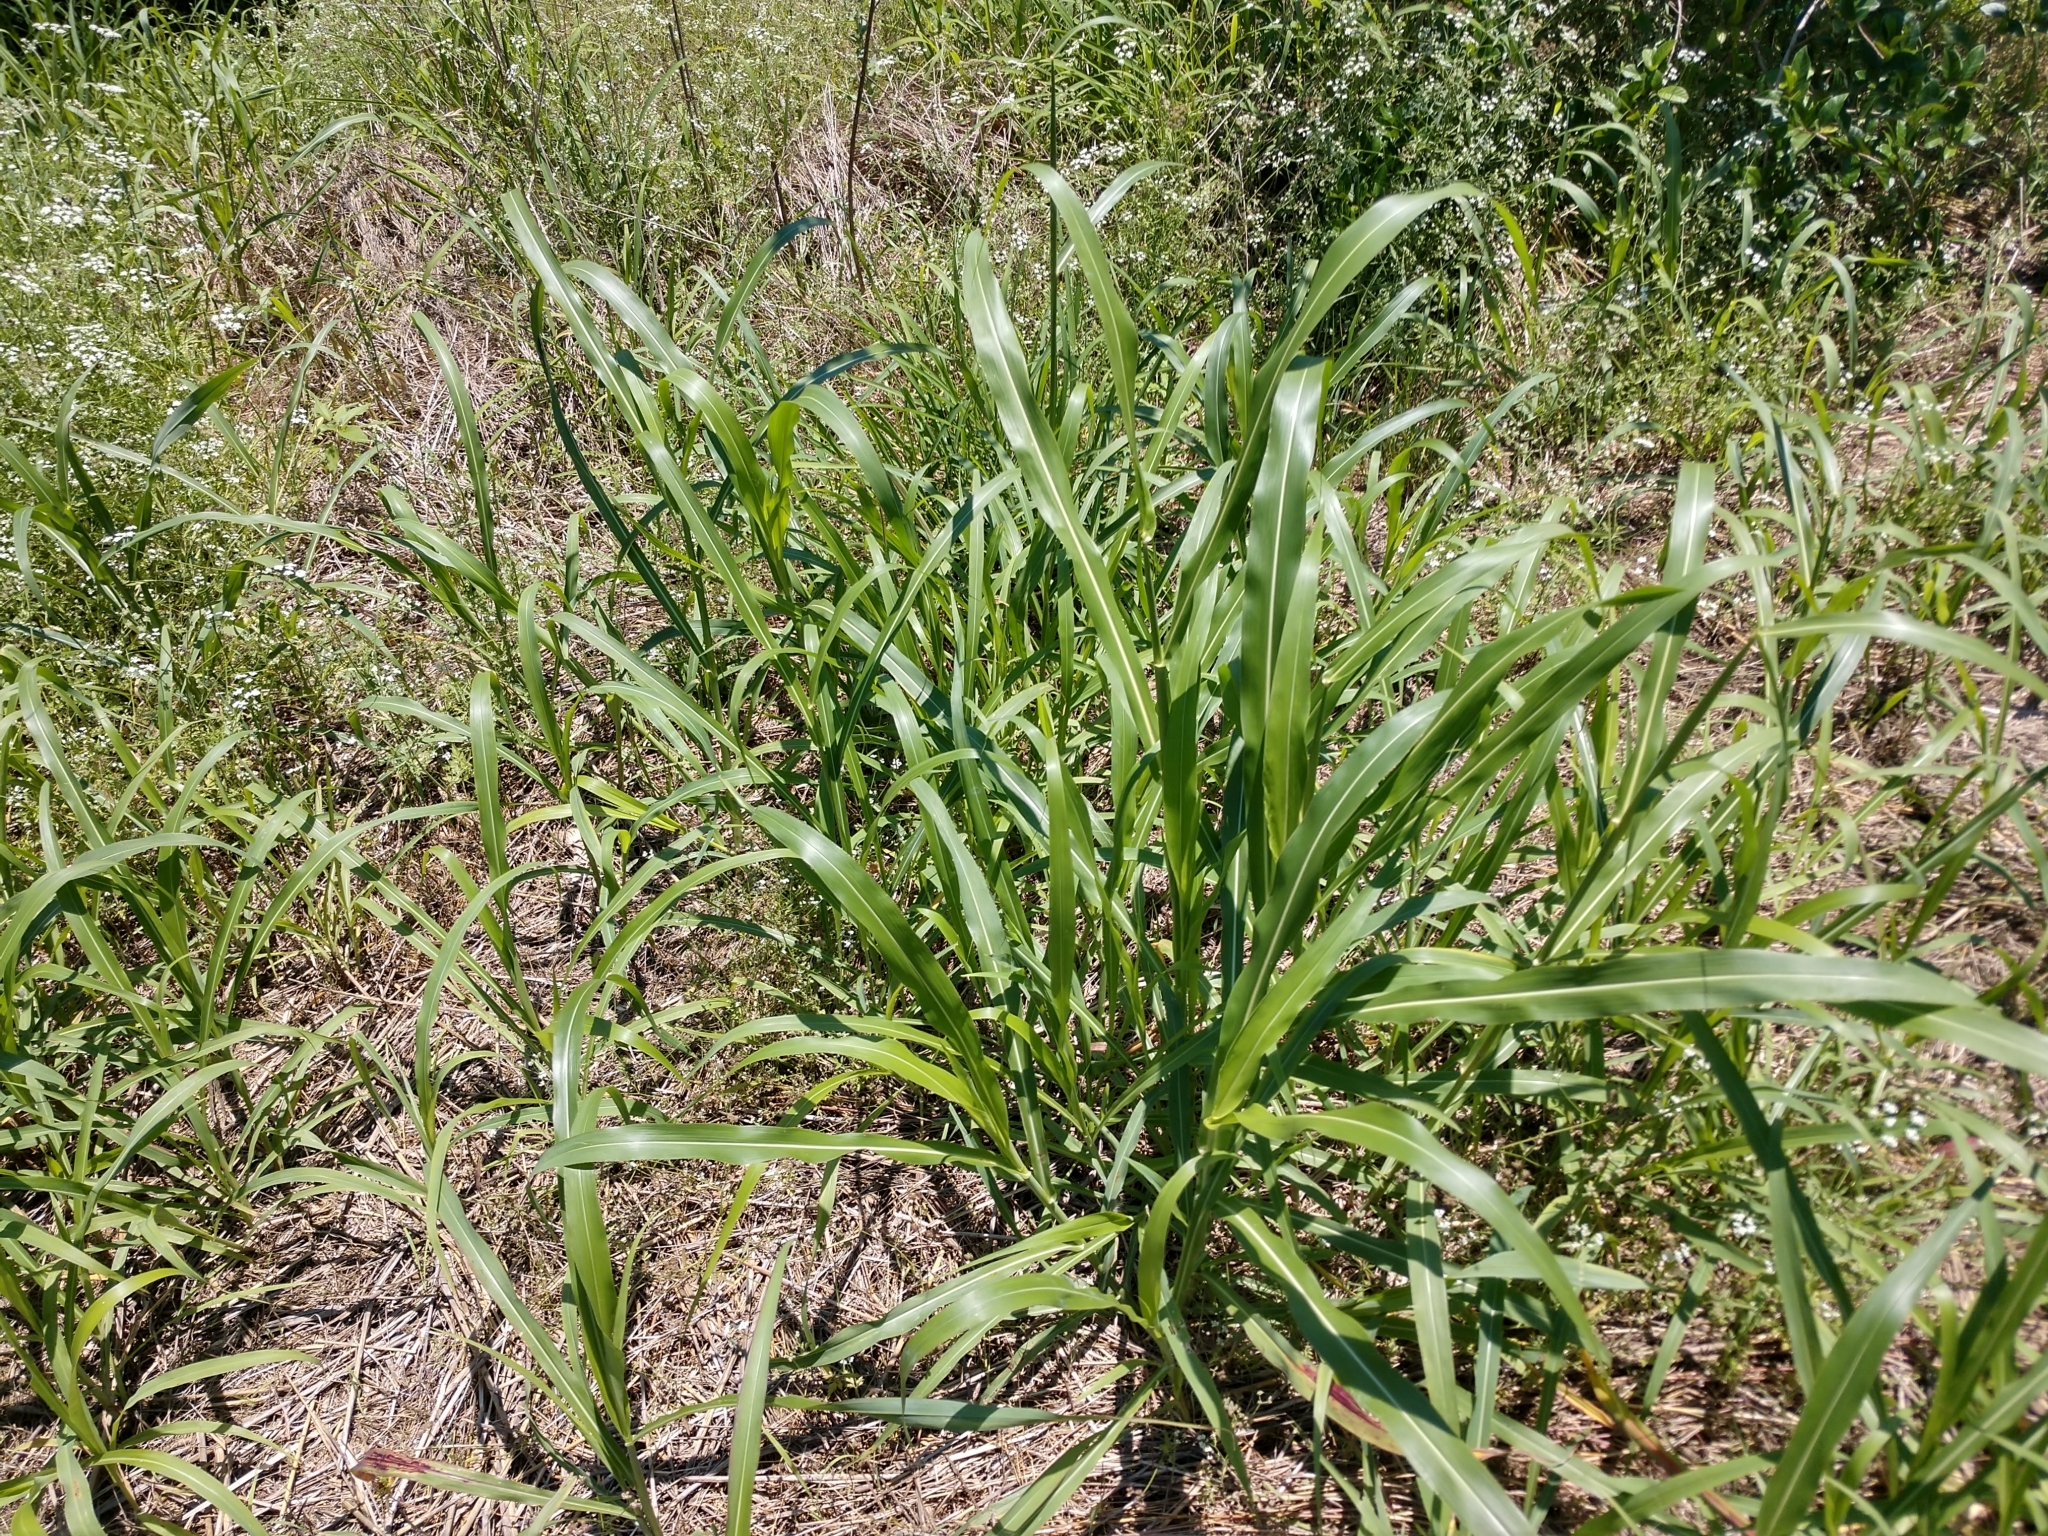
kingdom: Plantae
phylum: Tracheophyta
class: Liliopsida
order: Poales
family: Poaceae
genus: Sorghum
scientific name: Sorghum halepense
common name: Johnson-grass
